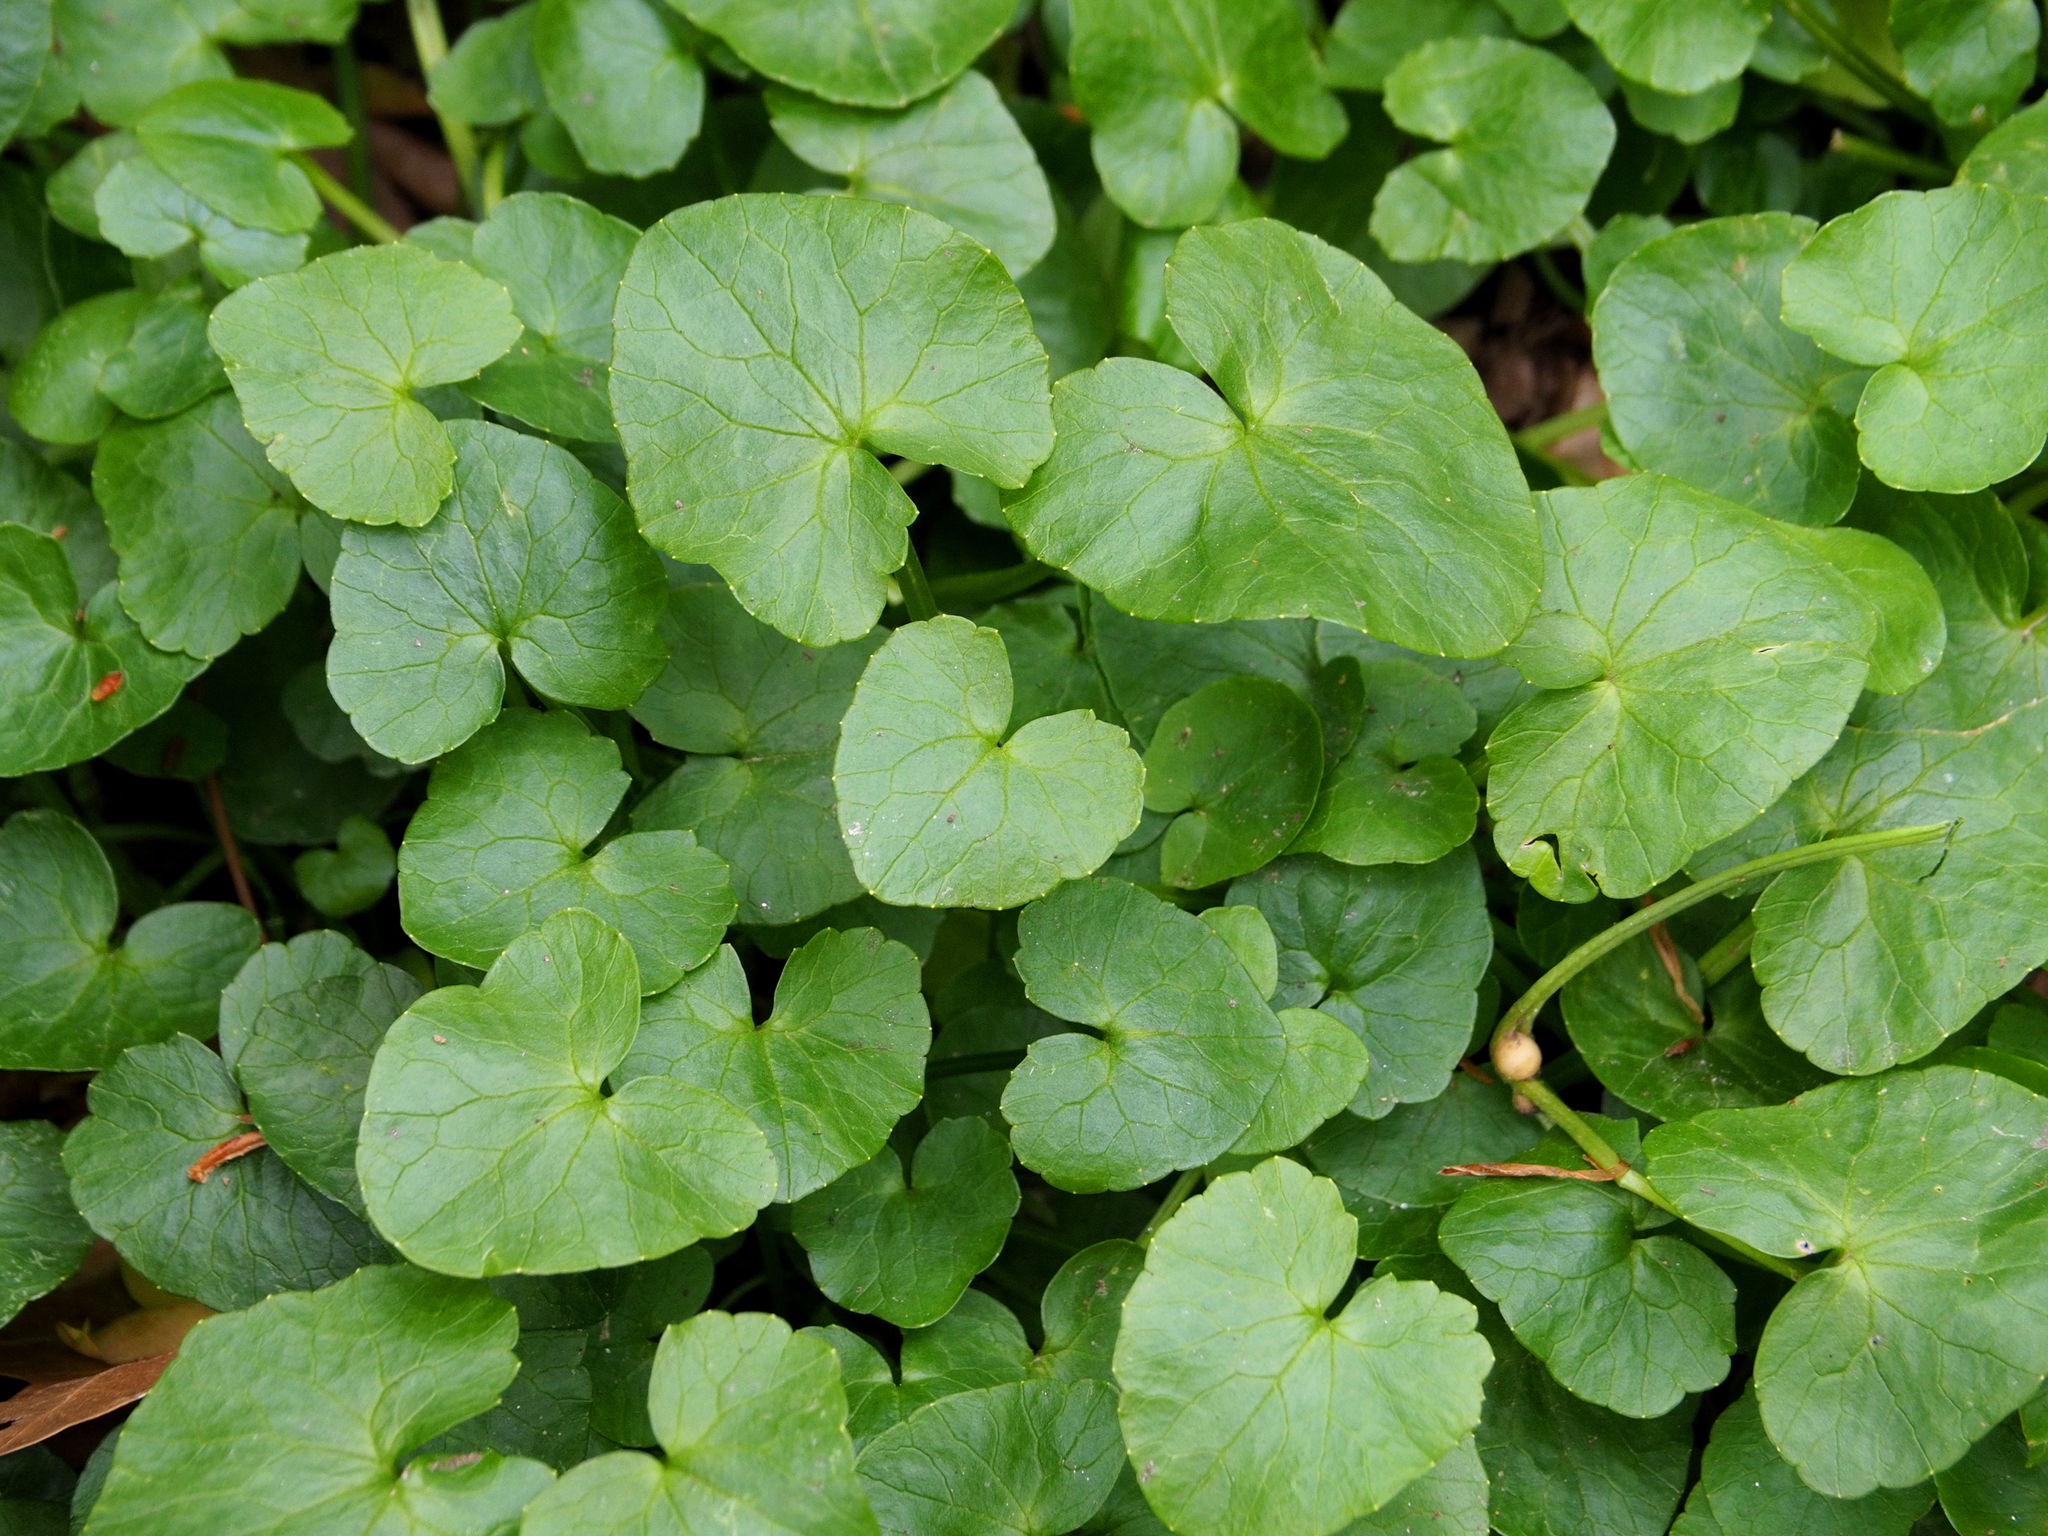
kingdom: Plantae
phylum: Tracheophyta
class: Magnoliopsida
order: Ranunculales
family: Ranunculaceae
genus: Ficaria
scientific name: Ficaria verna
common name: Lesser celandine
